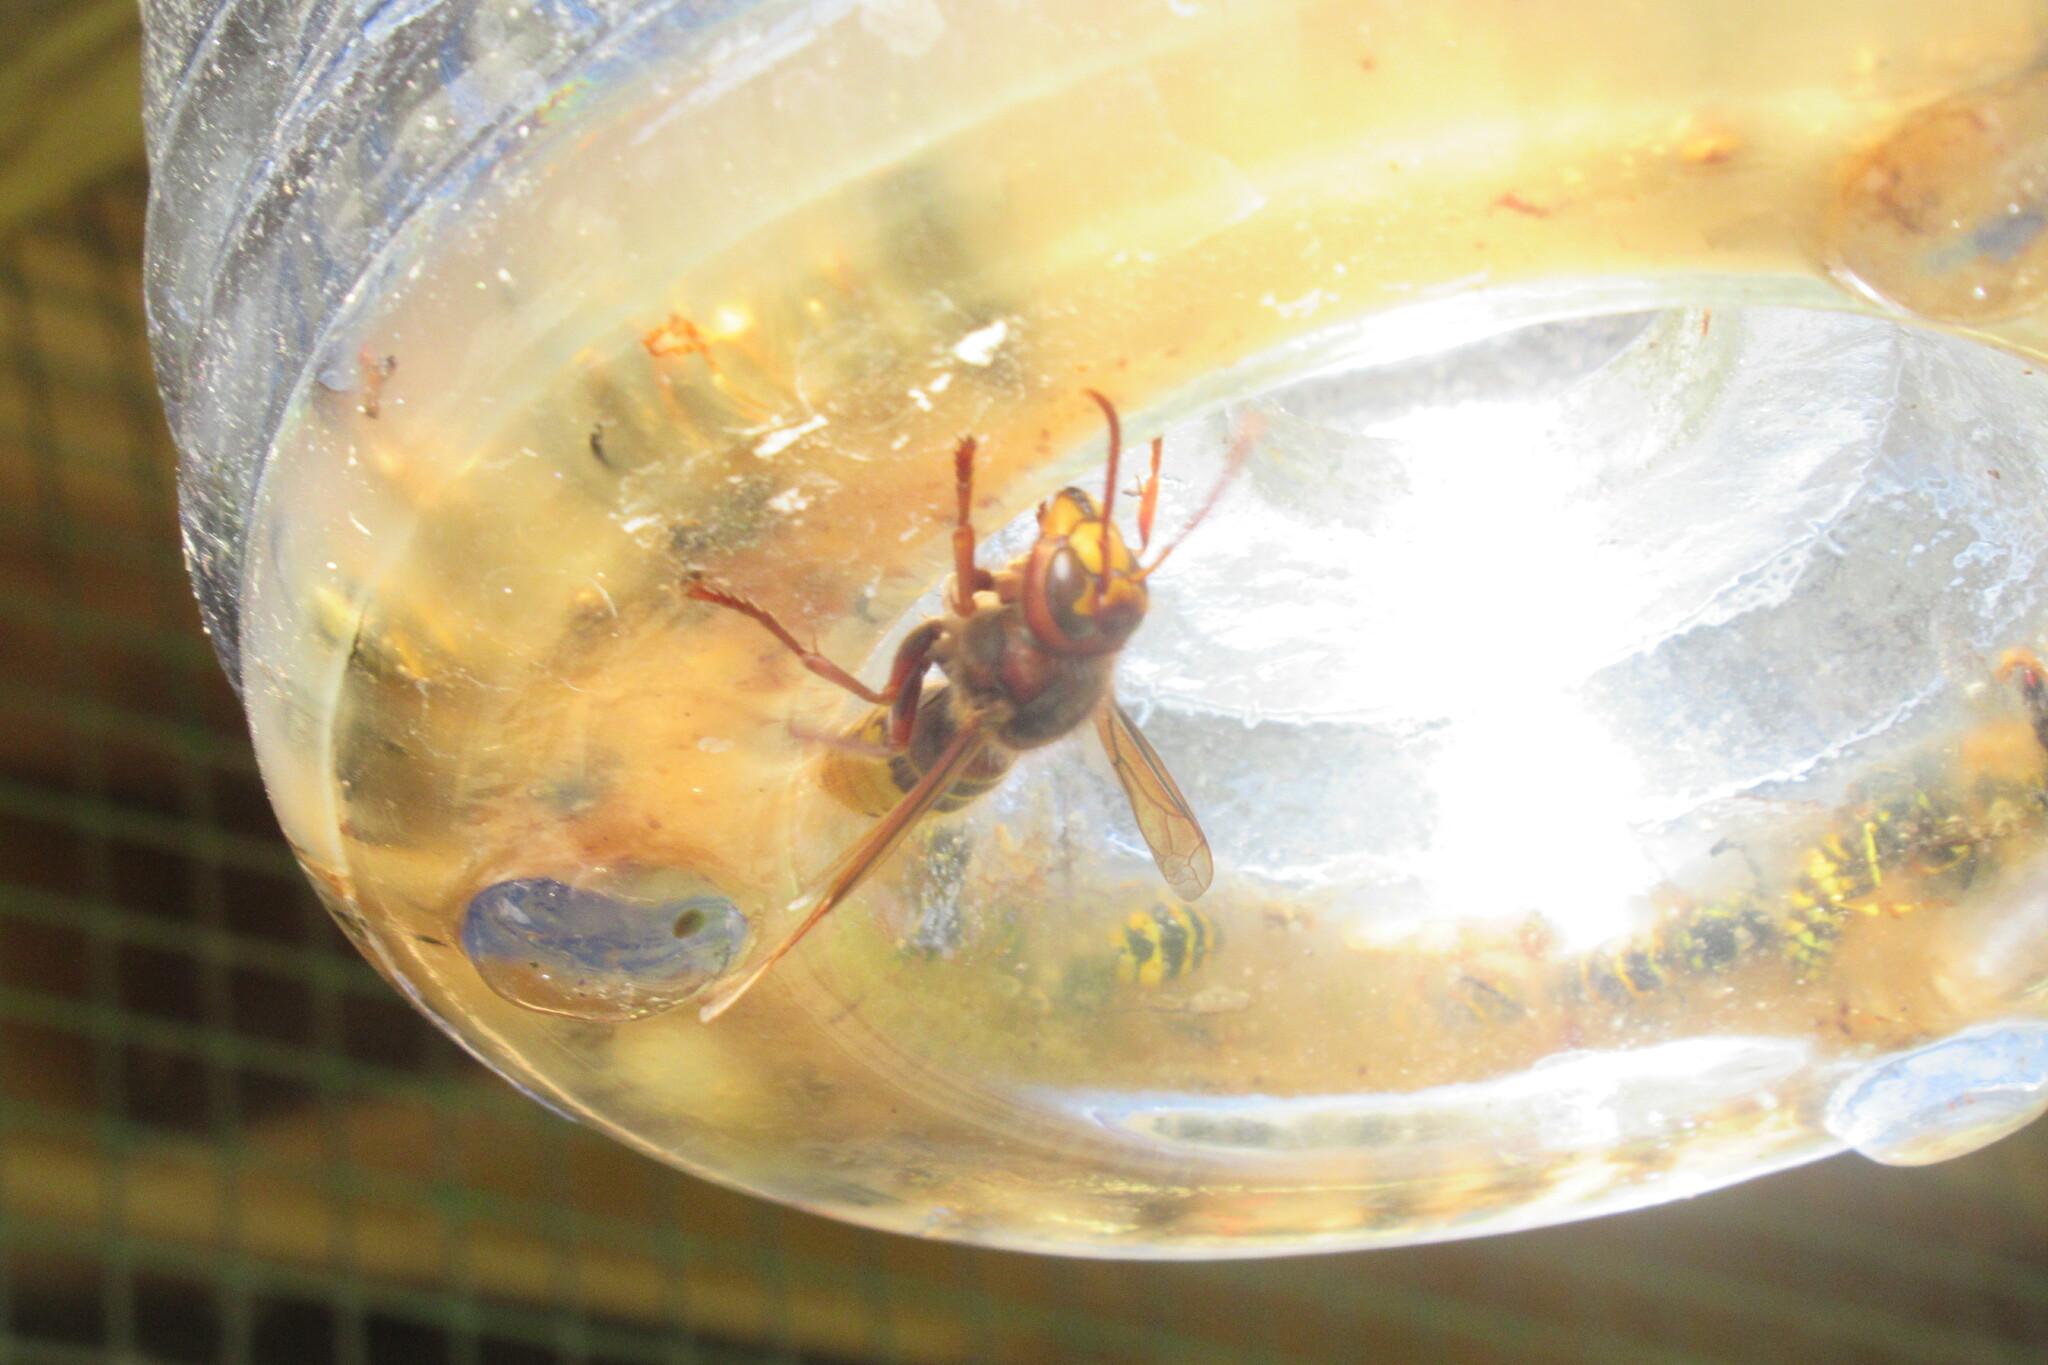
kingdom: Animalia
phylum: Arthropoda
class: Insecta
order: Hymenoptera
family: Vespidae
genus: Vespa
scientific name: Vespa crabro
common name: Hornet
